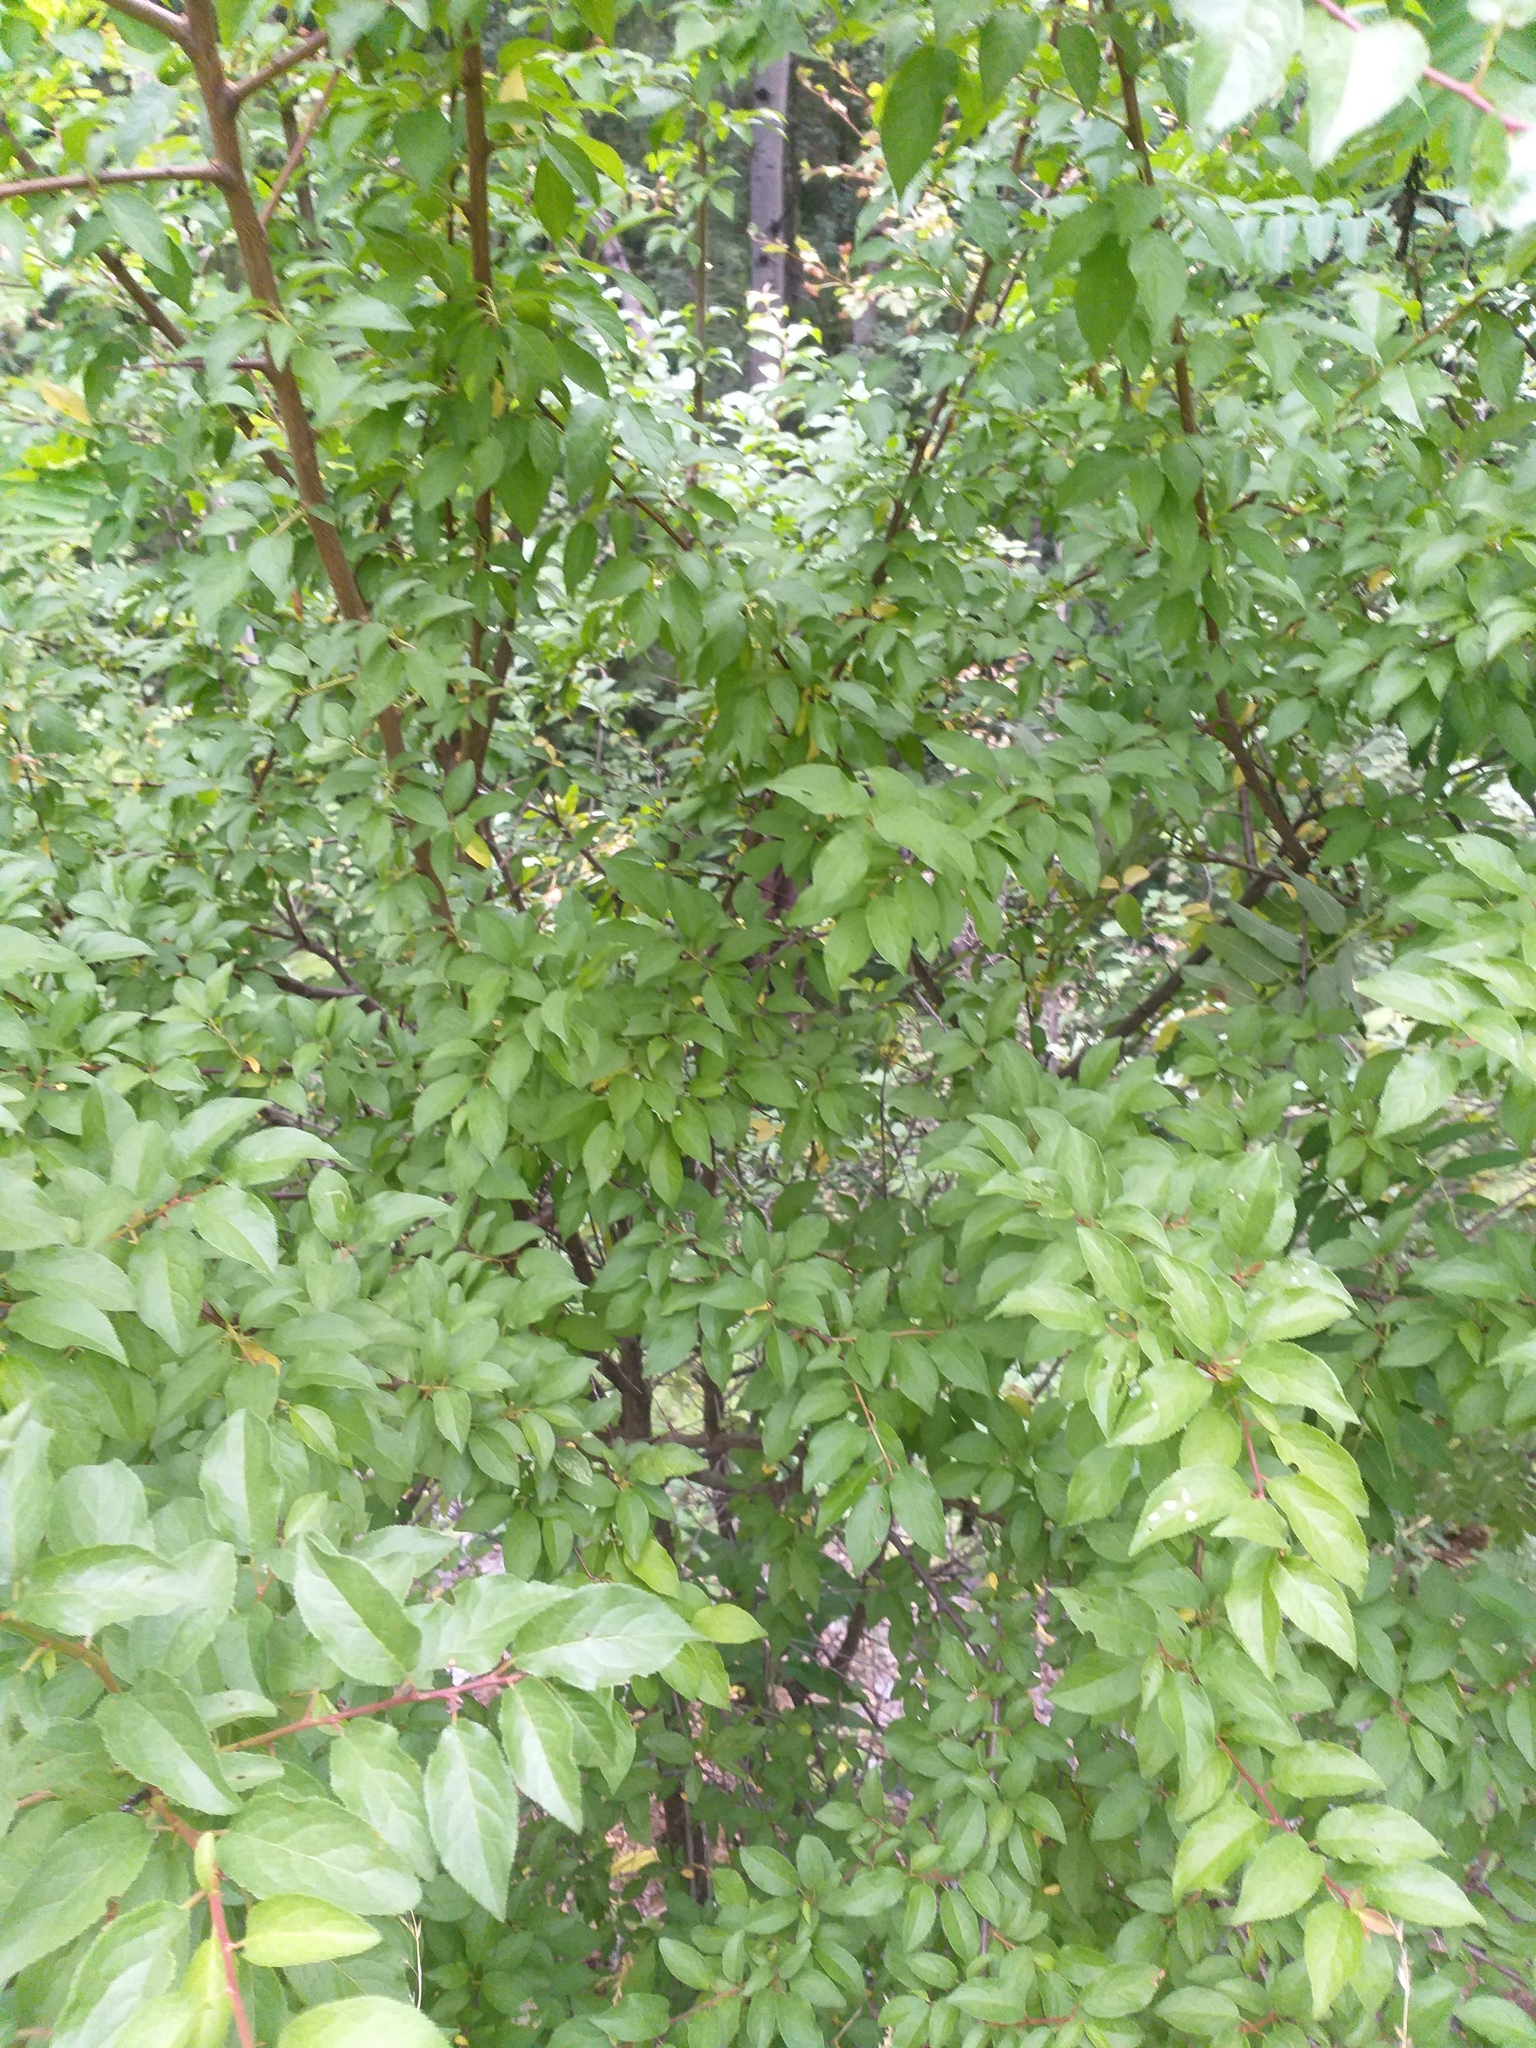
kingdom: Plantae
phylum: Tracheophyta
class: Magnoliopsida
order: Rosales
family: Rosaceae
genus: Prunus
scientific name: Prunus cerasifera
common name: Cherry plum
